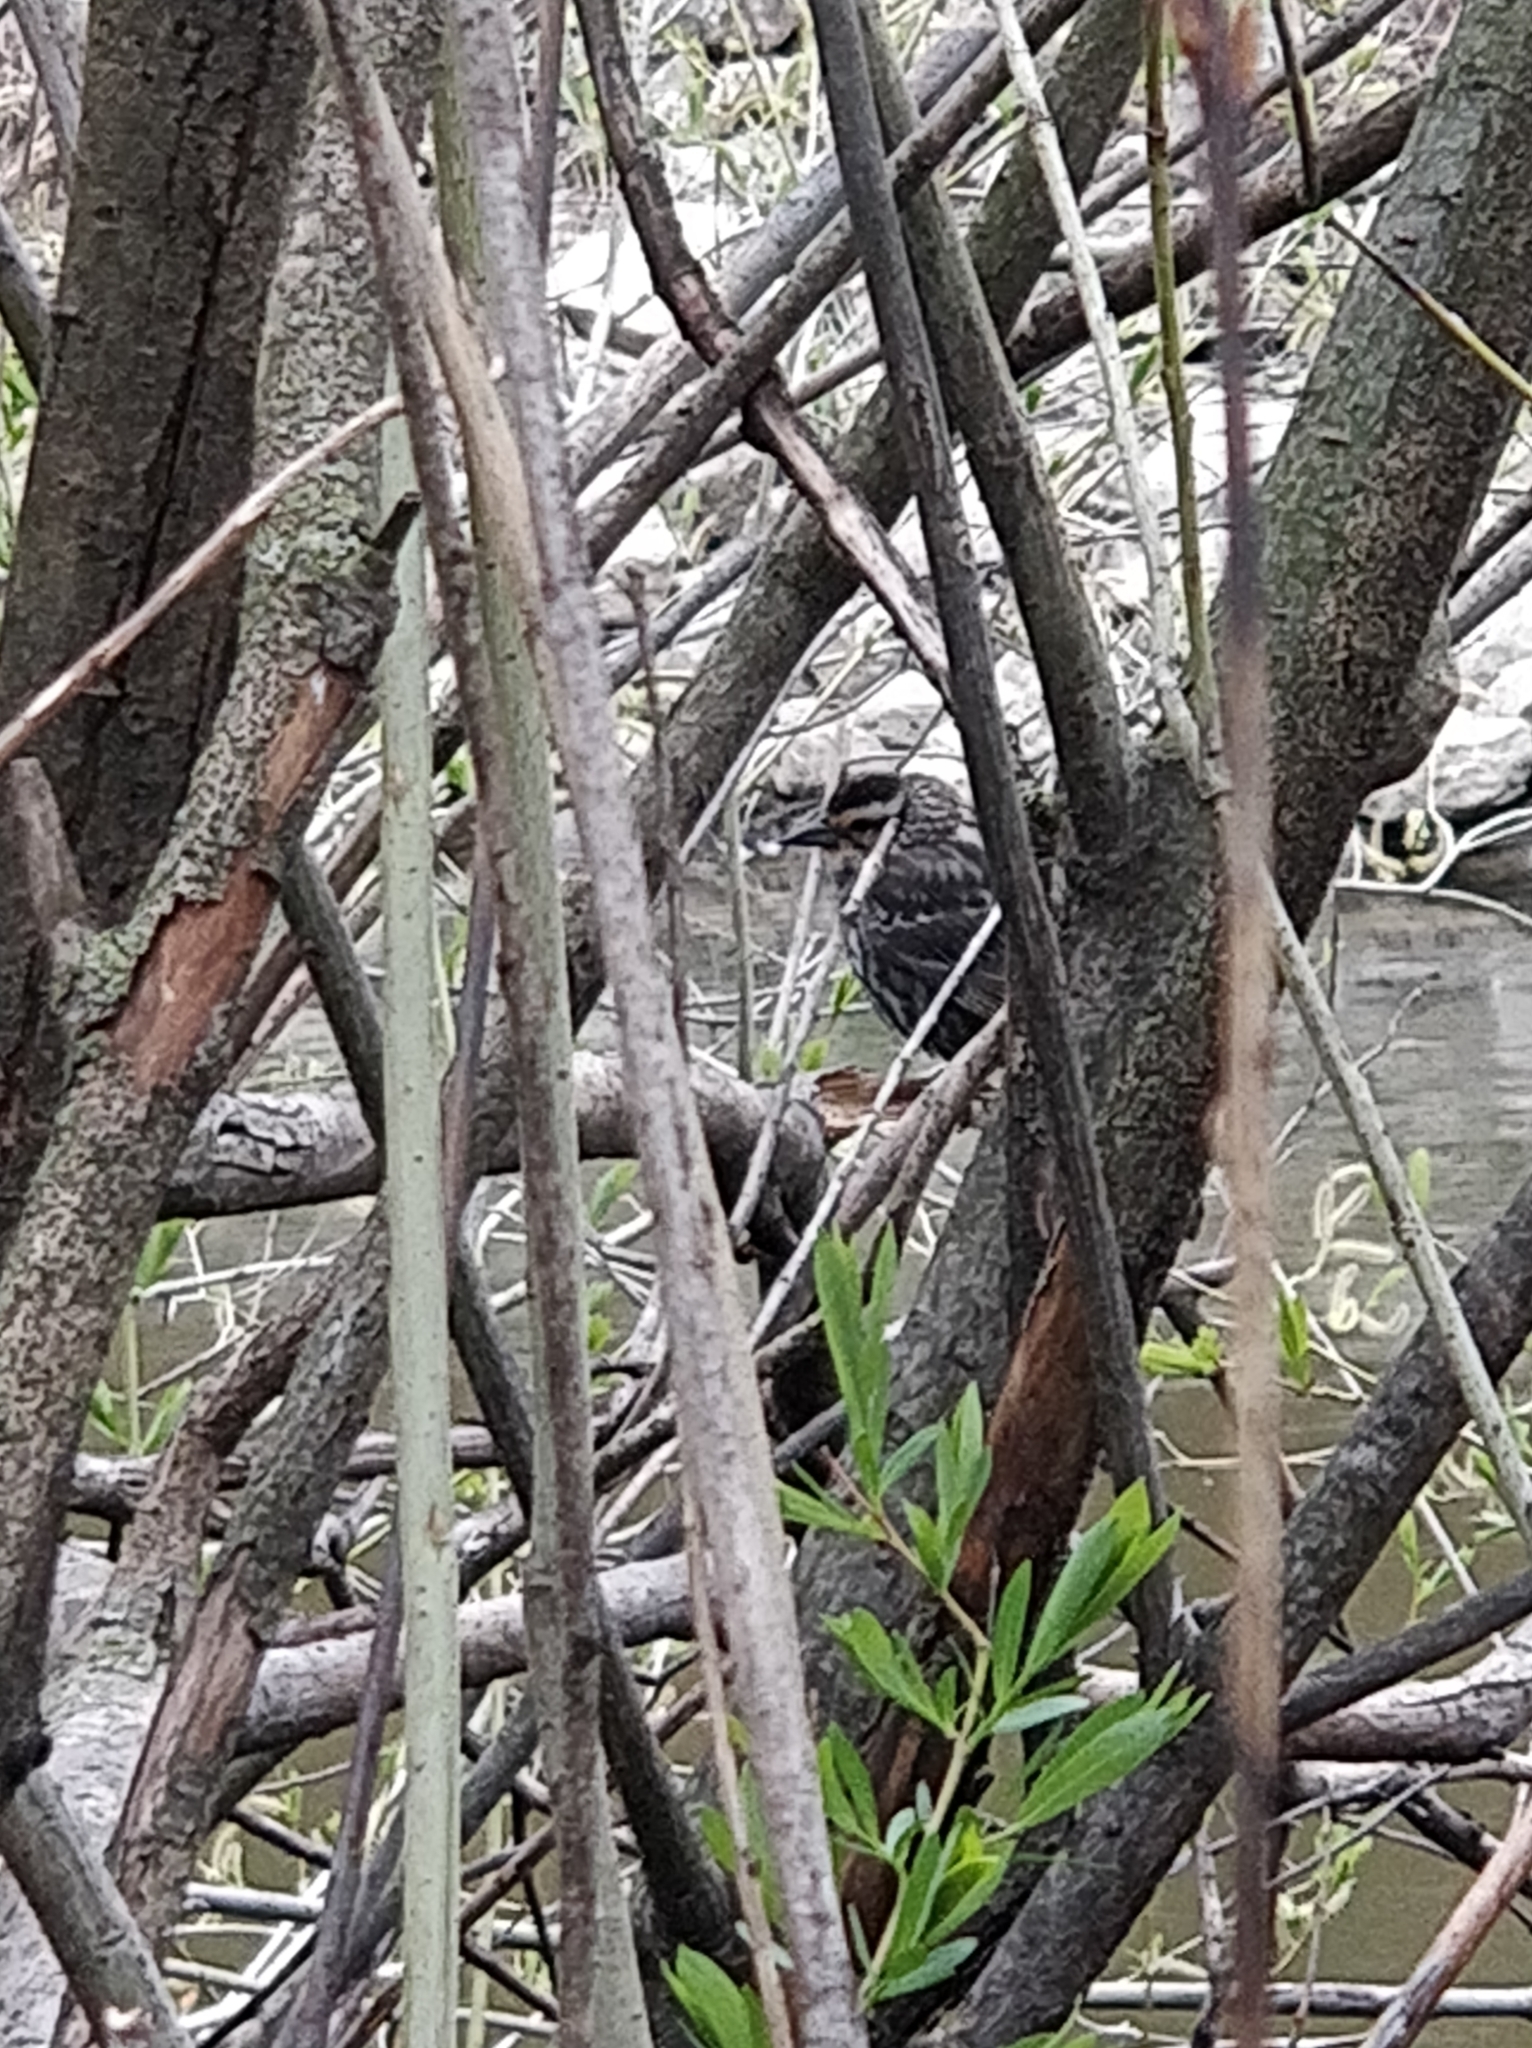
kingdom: Animalia
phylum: Chordata
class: Aves
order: Passeriformes
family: Icteridae
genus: Agelaius
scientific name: Agelaius phoeniceus
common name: Red-winged blackbird
